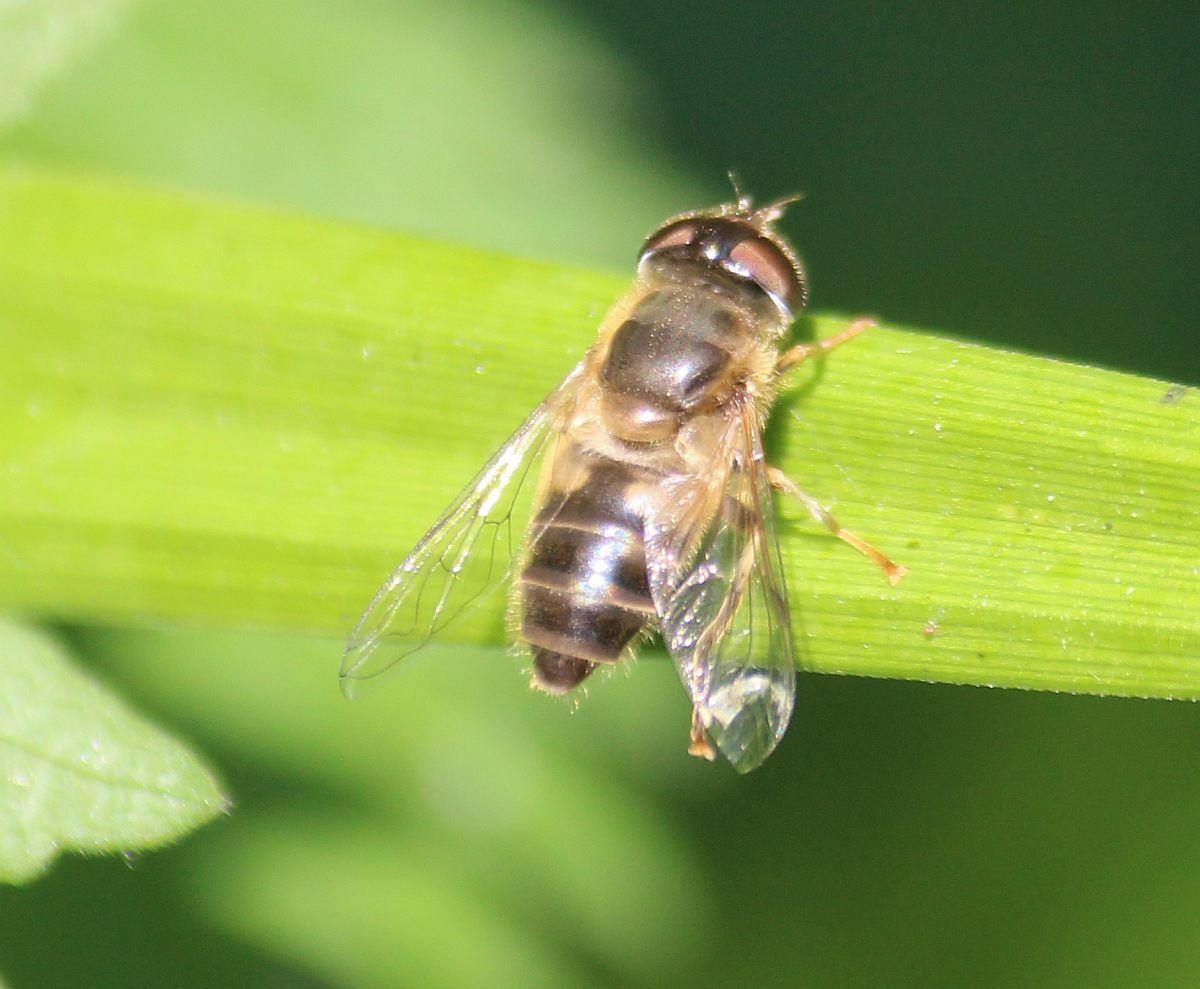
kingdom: Animalia
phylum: Arthropoda
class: Insecta
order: Diptera
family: Syrphidae
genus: Eristalis
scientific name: Eristalis pertinax
